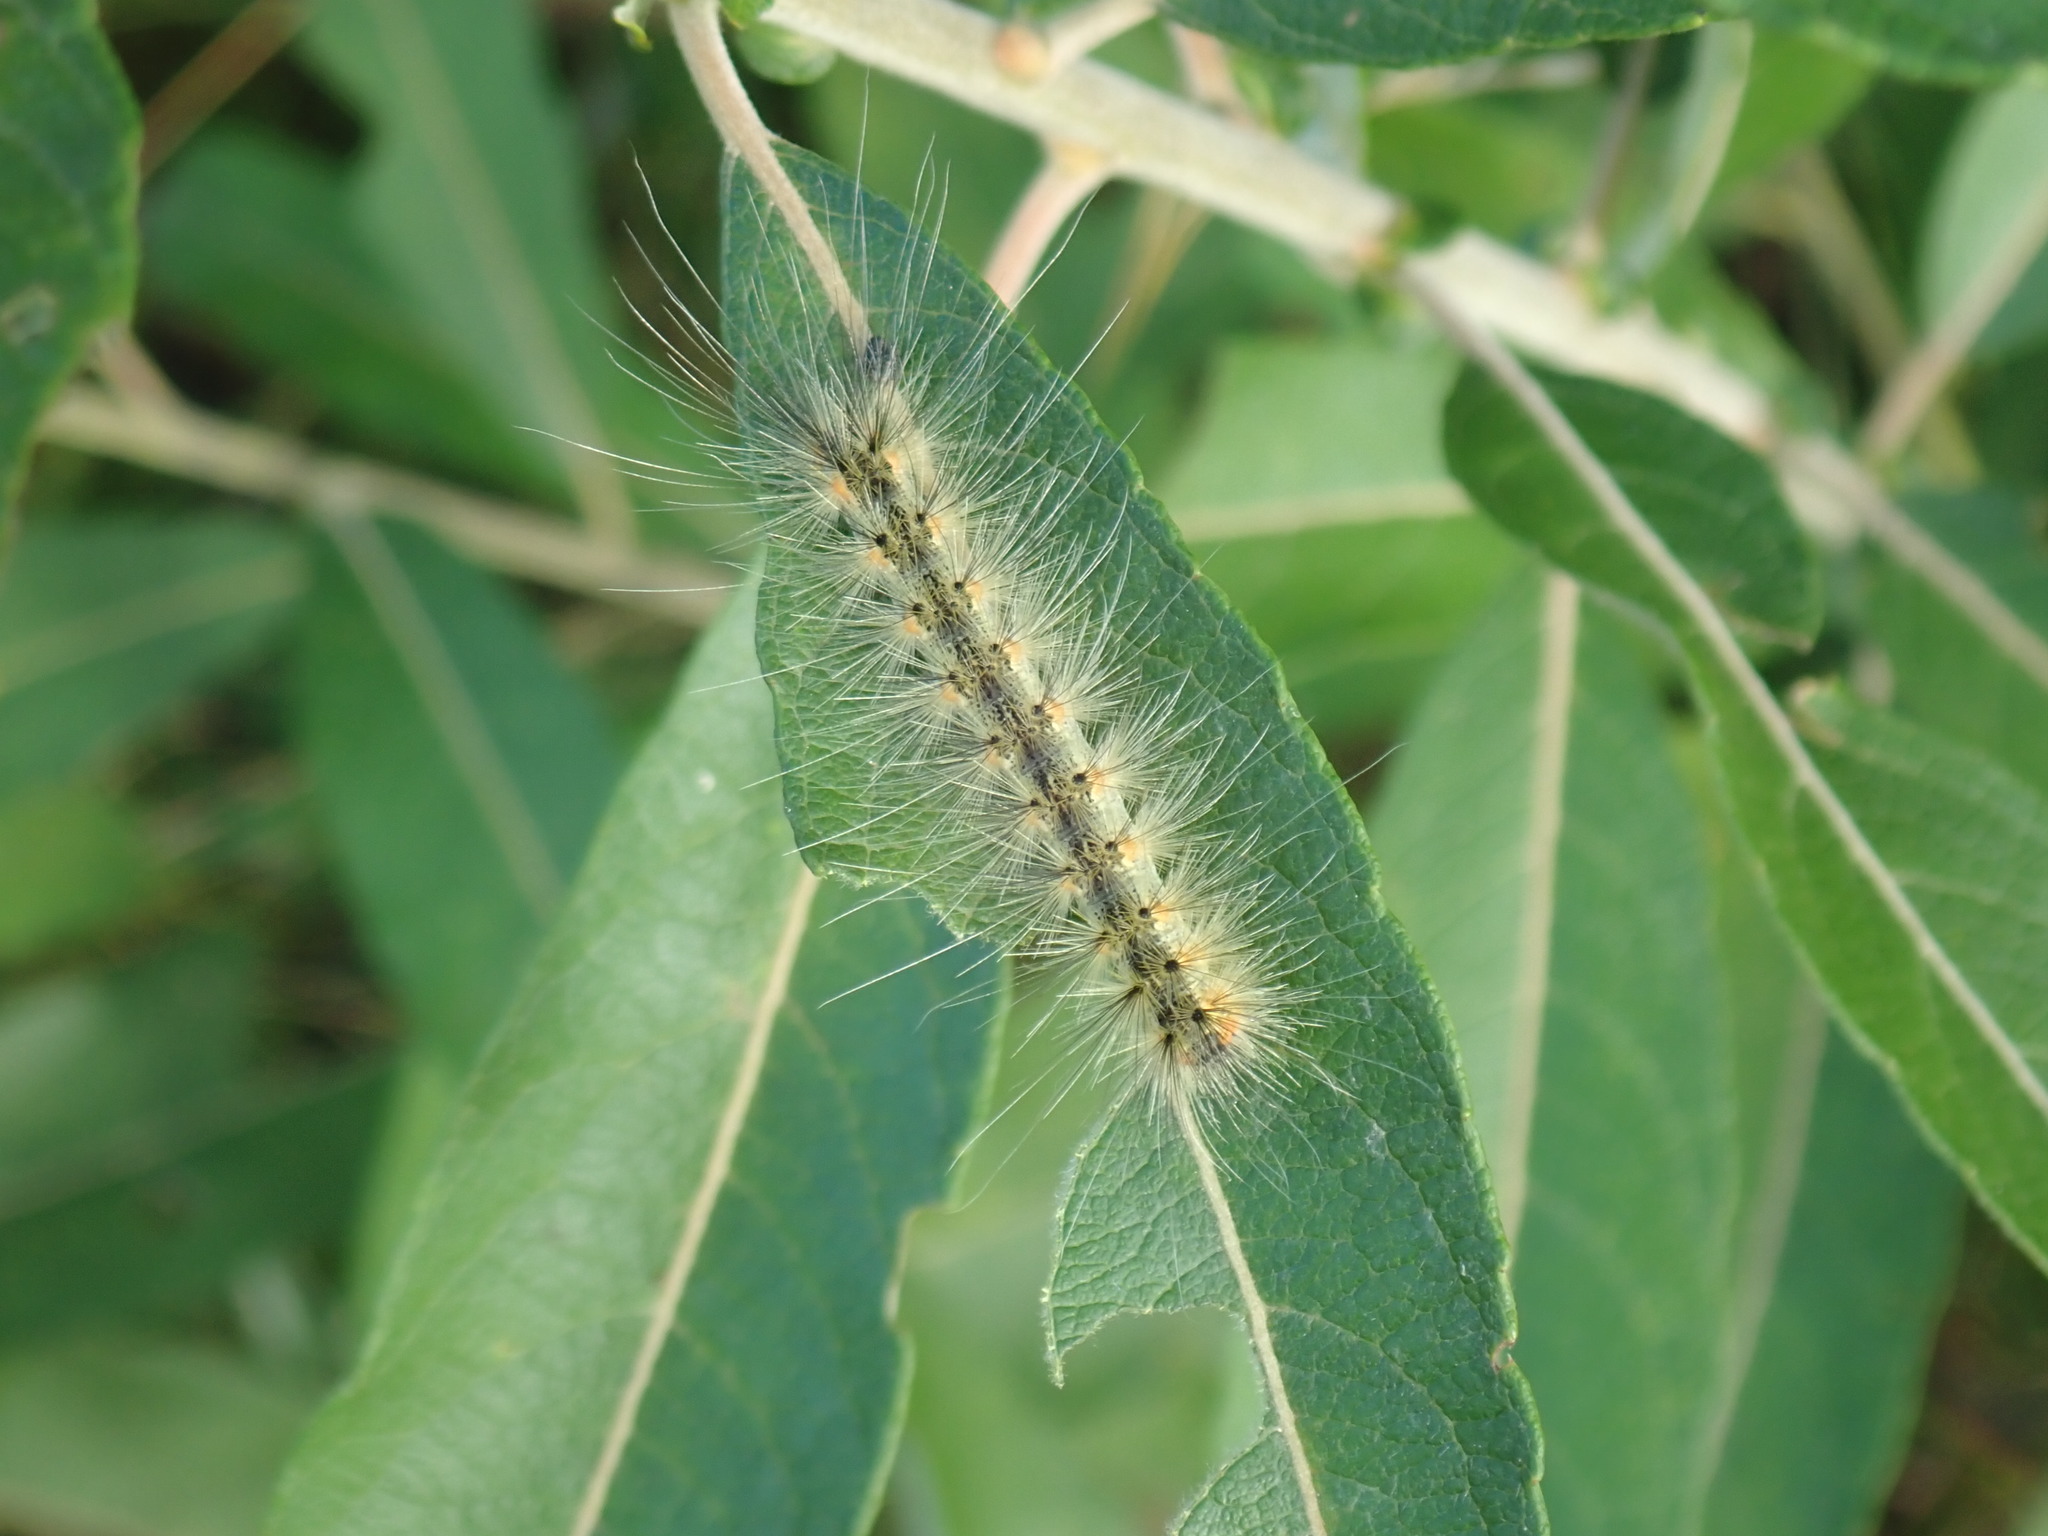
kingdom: Animalia
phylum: Arthropoda
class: Insecta
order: Lepidoptera
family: Erebidae
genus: Hyphantria
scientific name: Hyphantria cunea
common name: American white moth
